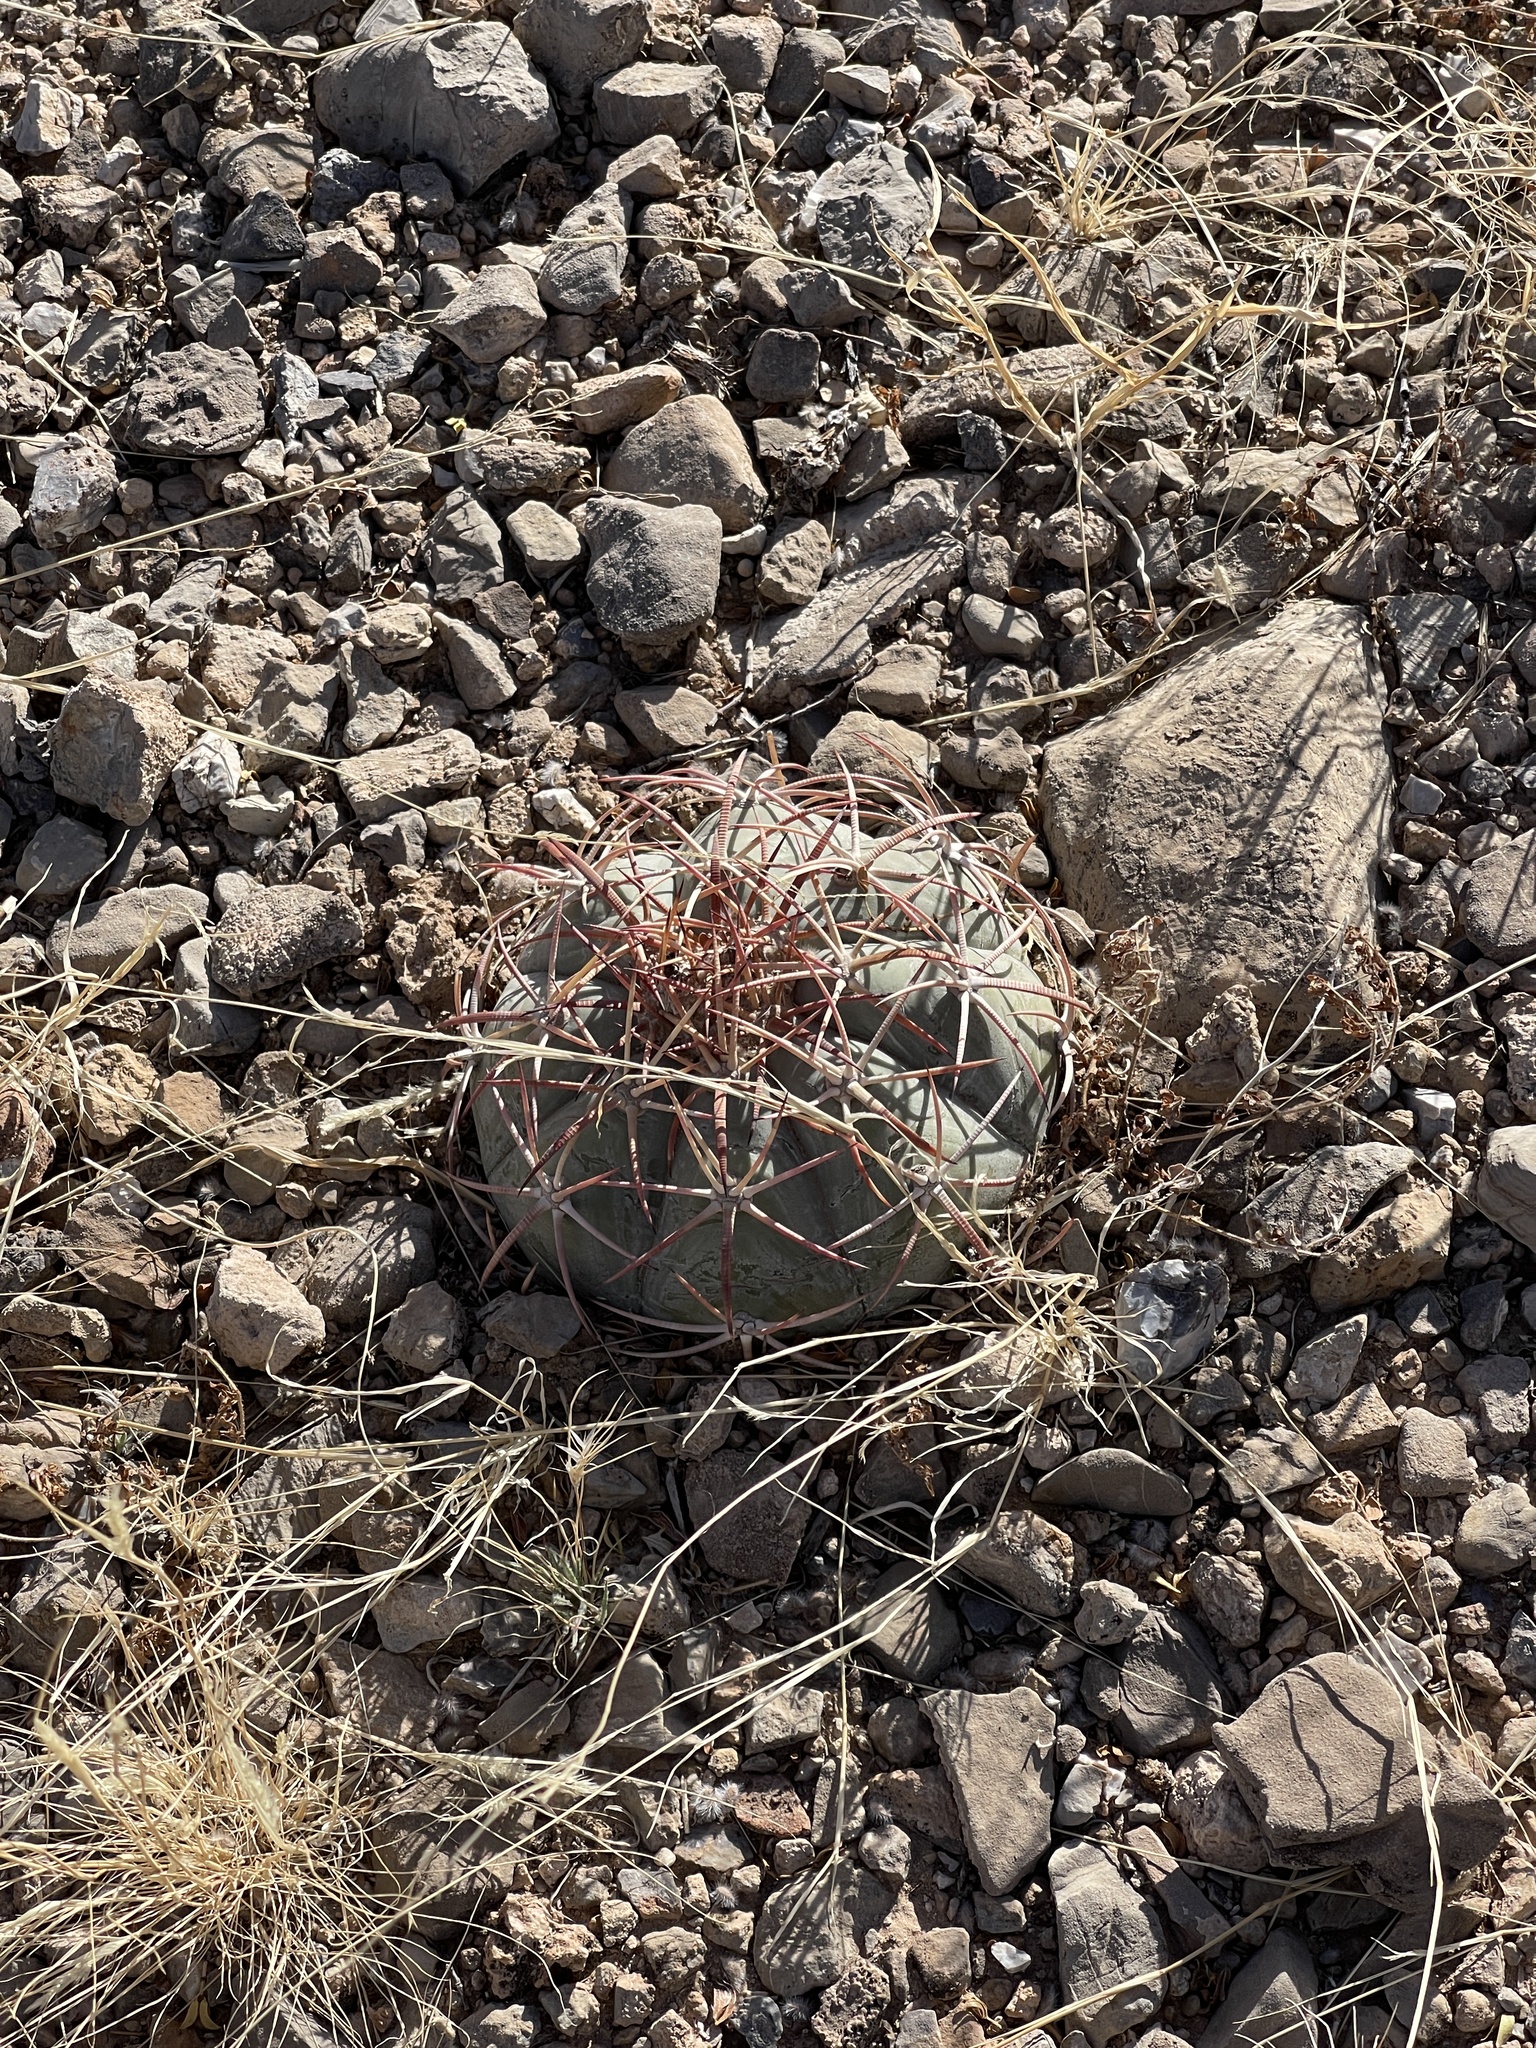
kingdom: Plantae
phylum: Tracheophyta
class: Magnoliopsida
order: Caryophyllales
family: Cactaceae
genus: Echinocactus
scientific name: Echinocactus horizonthalonius
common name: Devilshead
